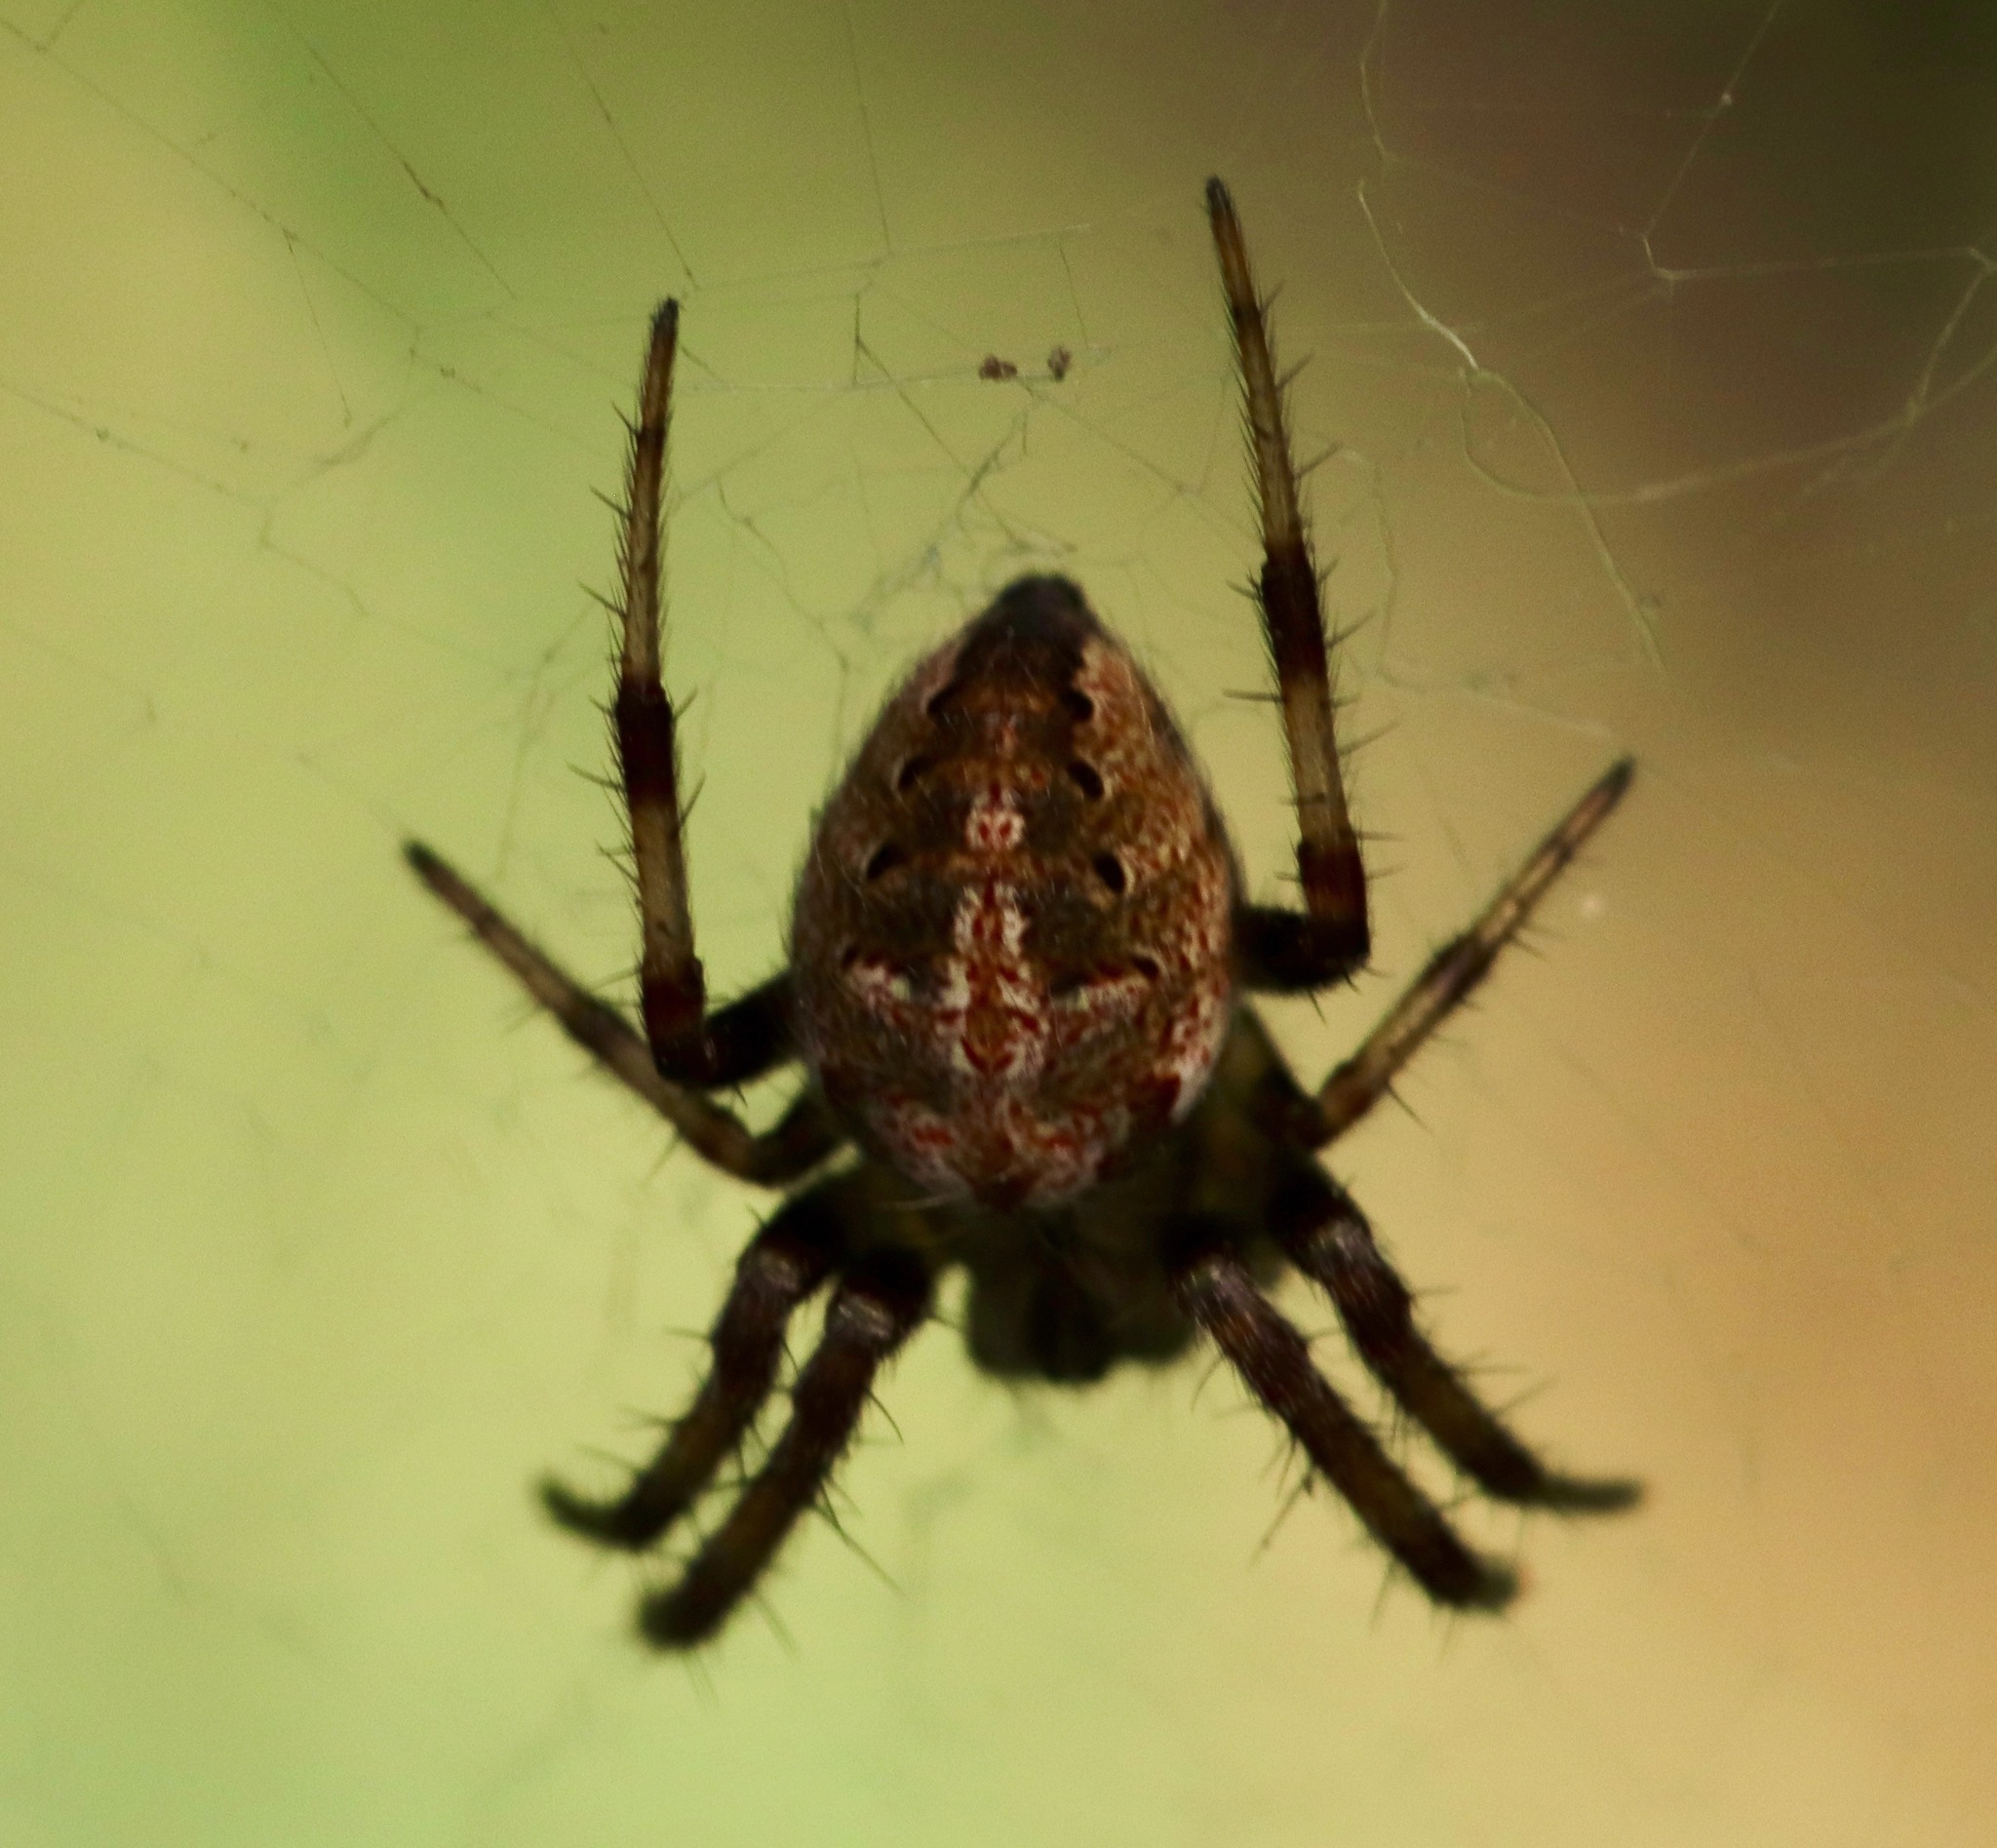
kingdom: Animalia
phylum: Arthropoda
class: Arachnida
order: Araneae
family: Araneidae
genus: Neoscona
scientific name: Neoscona arabesca
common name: Orb weavers
